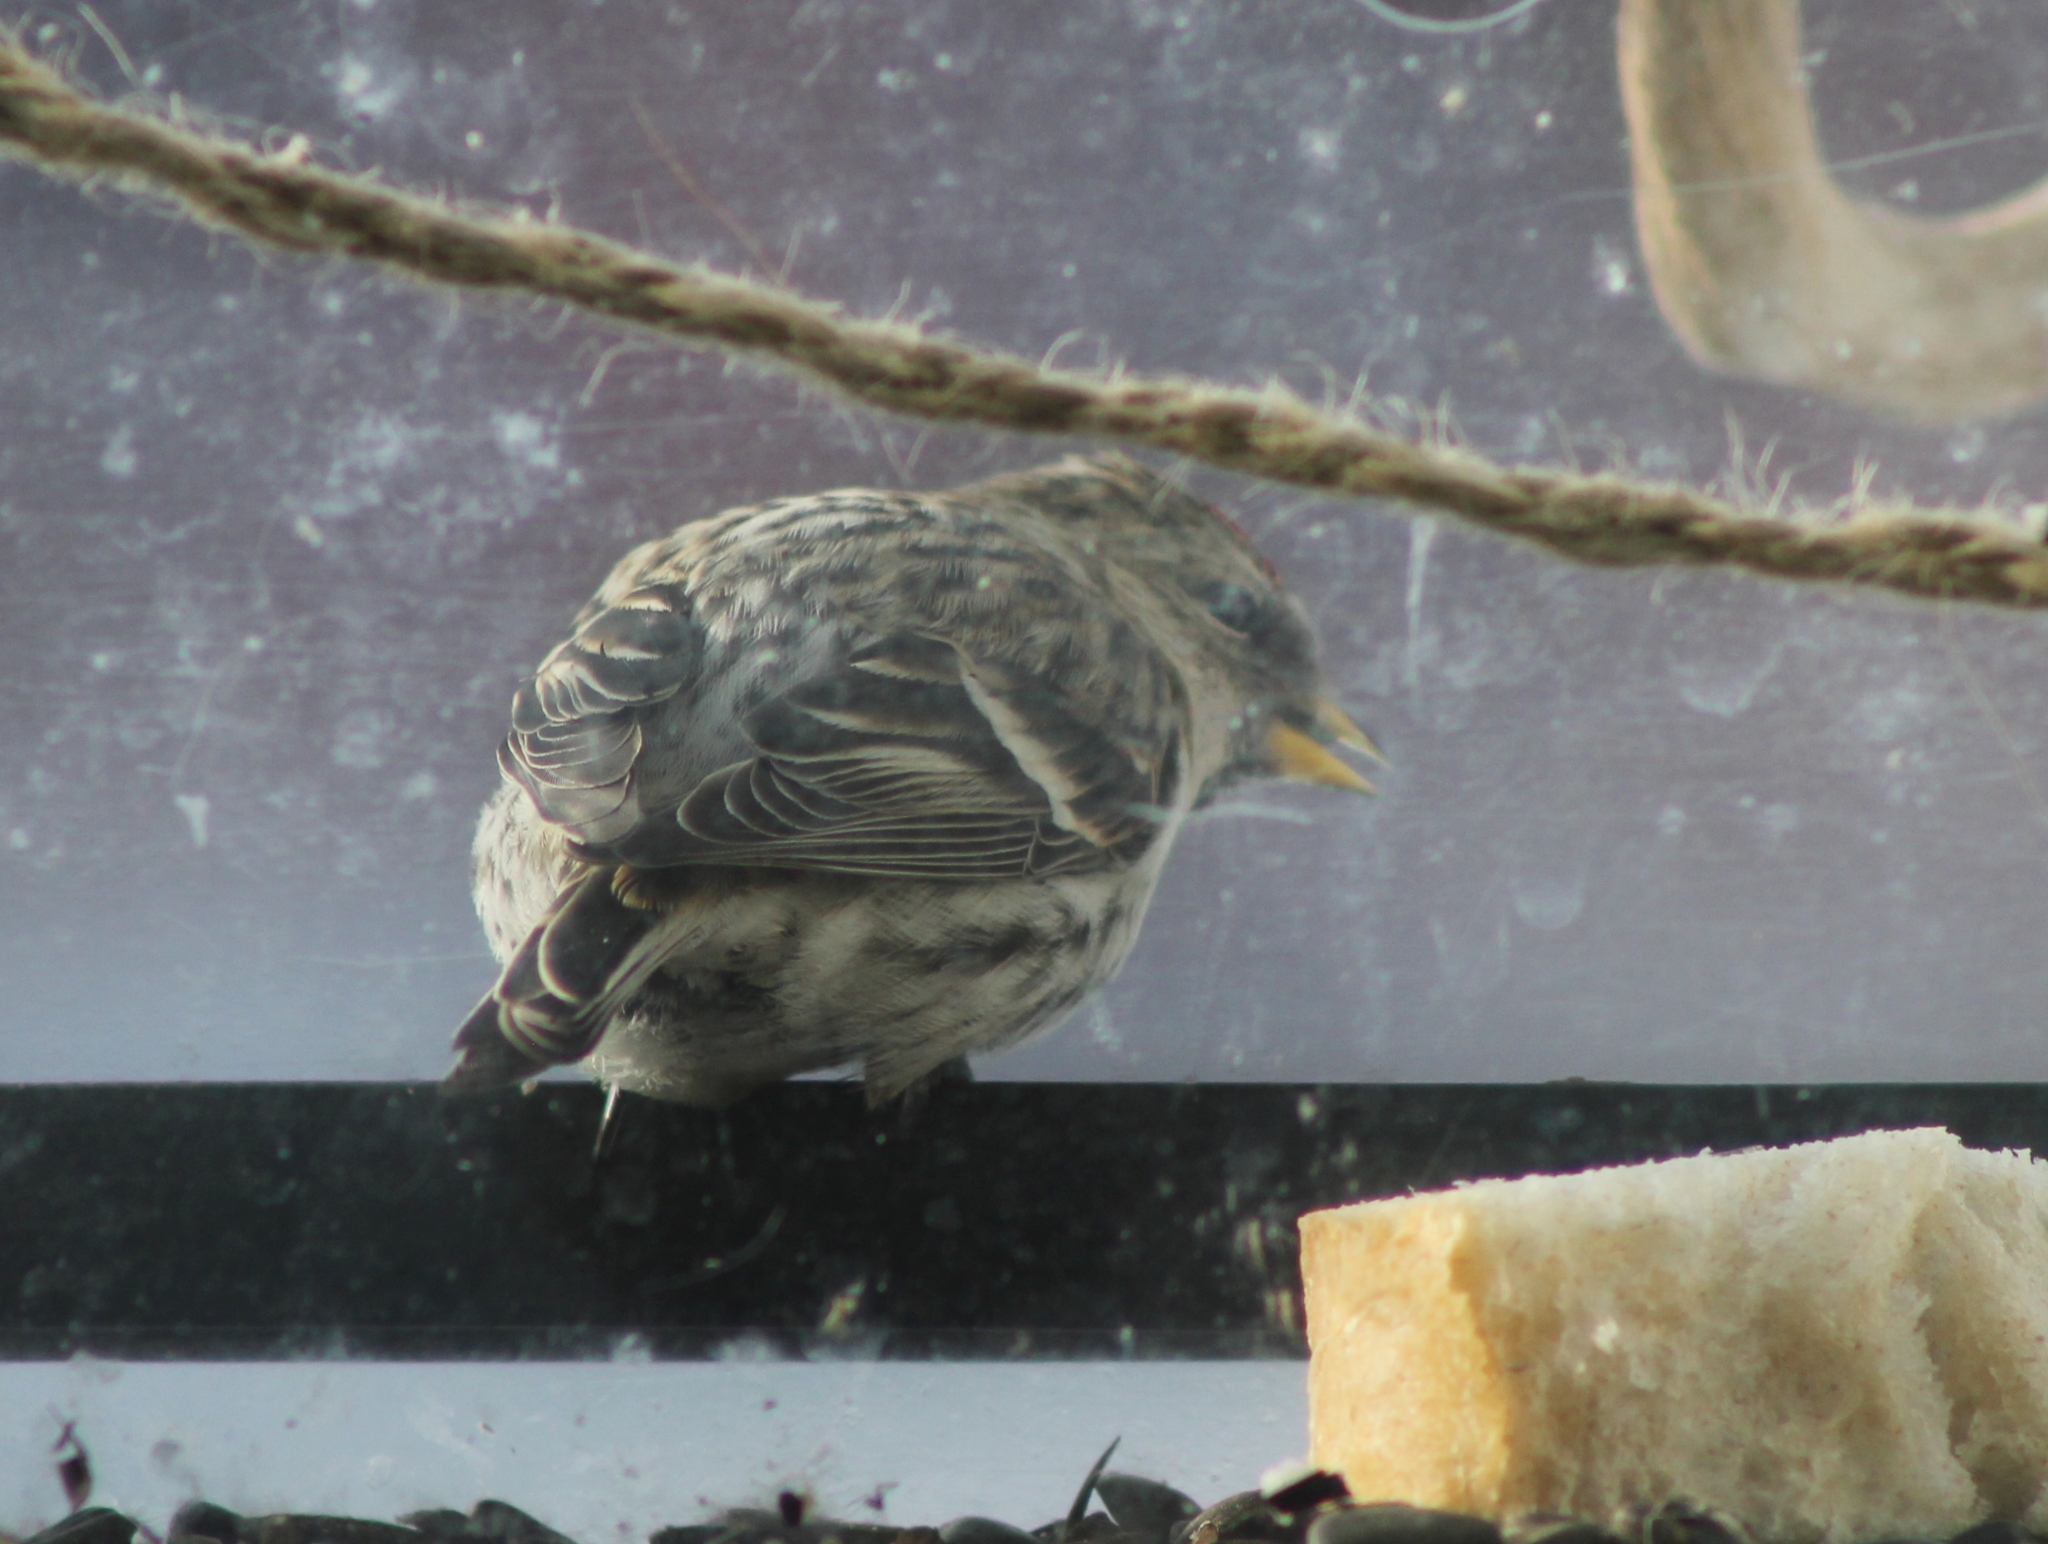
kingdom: Animalia
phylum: Chordata
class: Aves
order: Passeriformes
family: Fringillidae
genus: Acanthis
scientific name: Acanthis flammea
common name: Common redpoll
